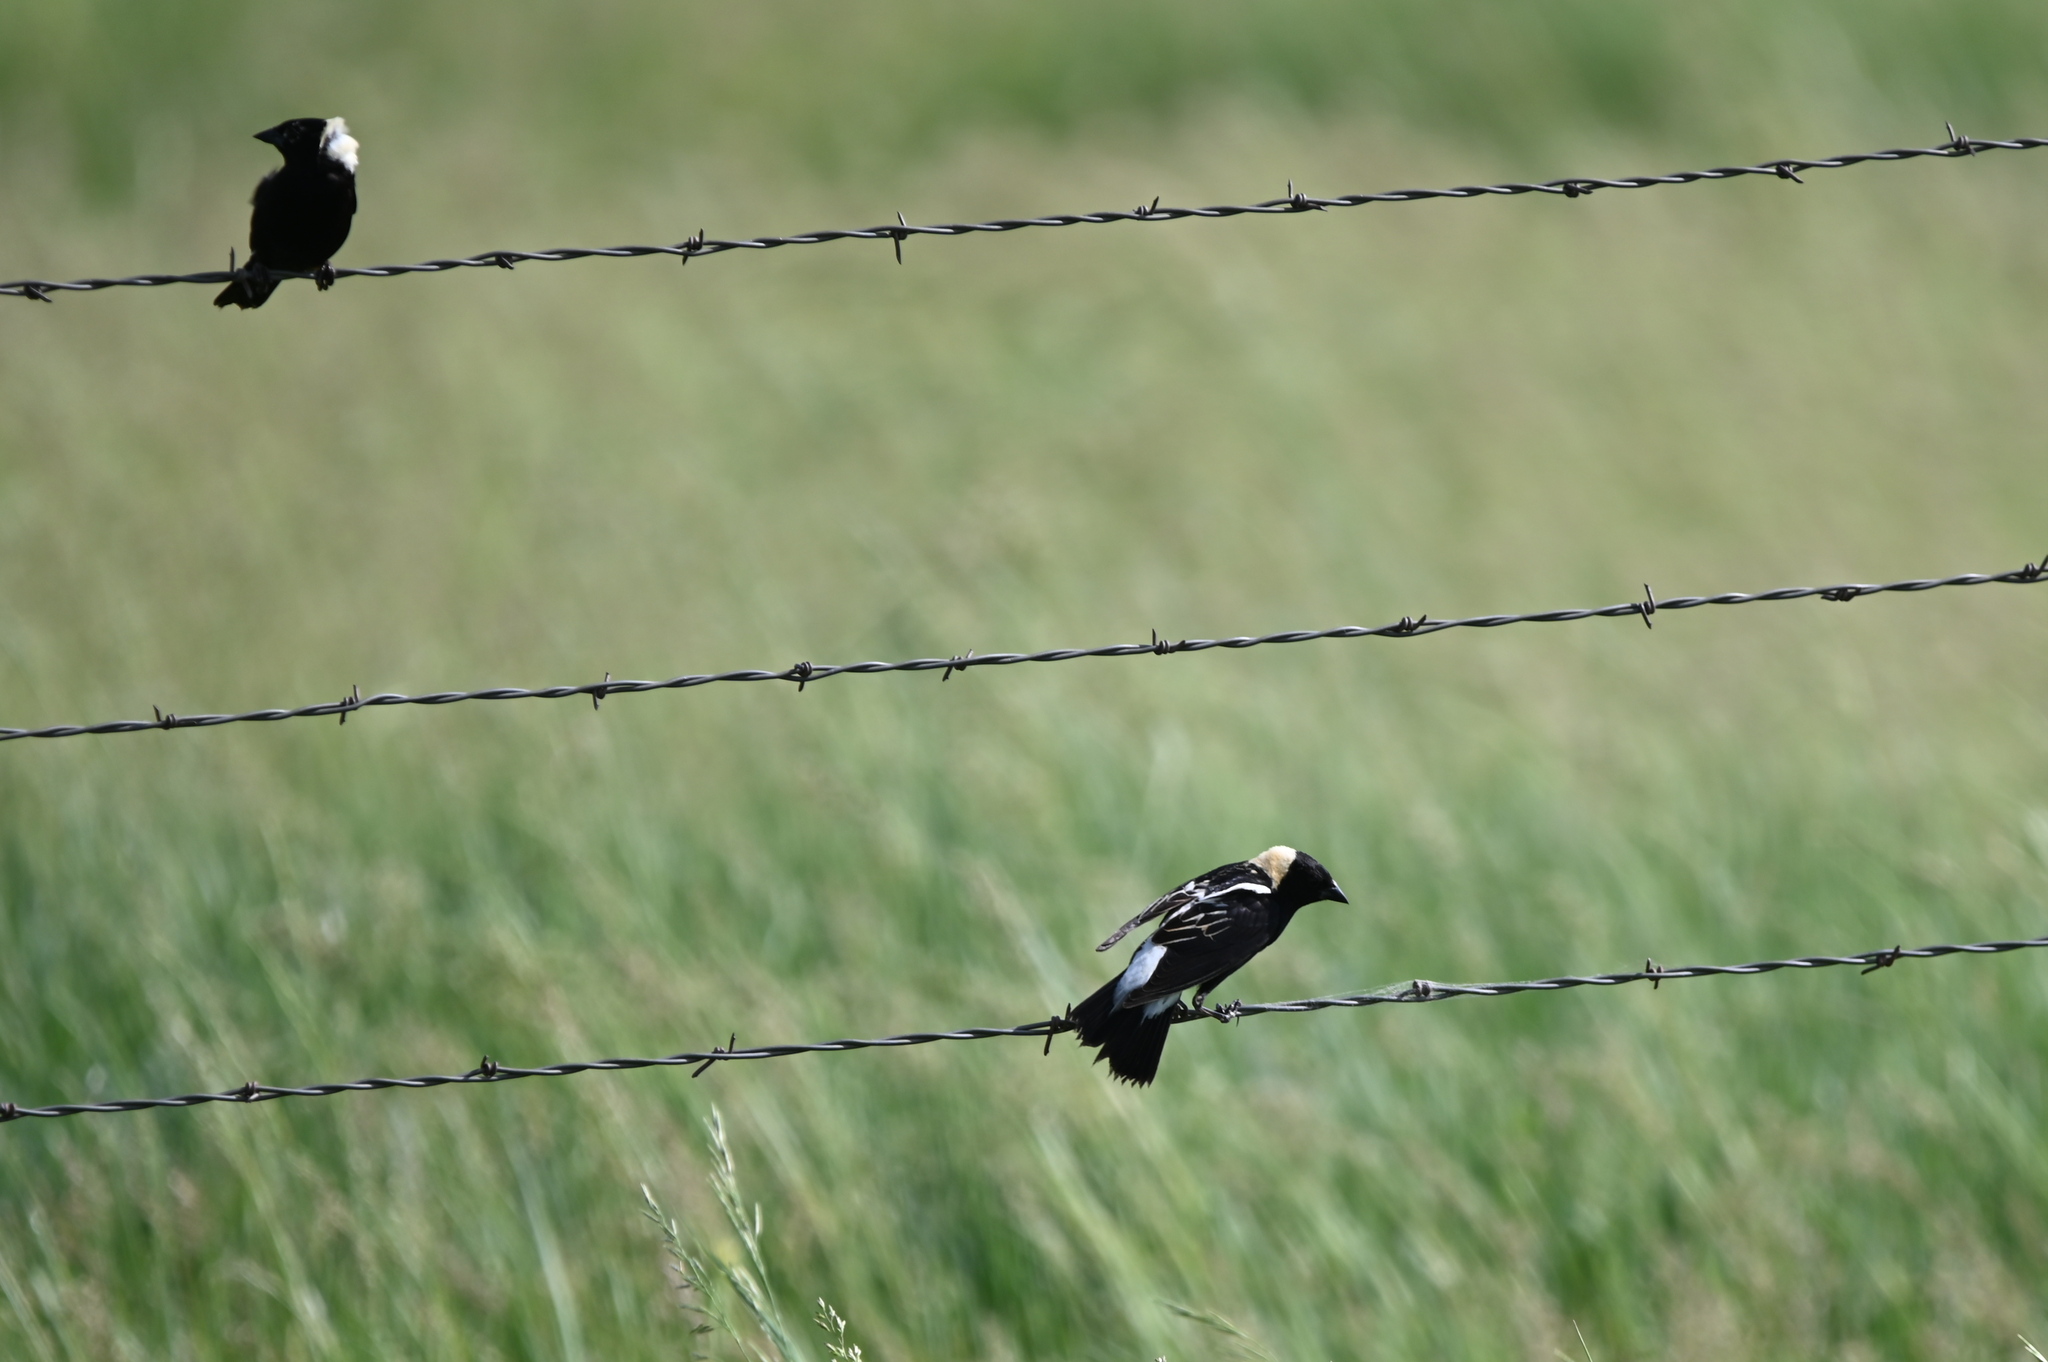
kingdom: Animalia
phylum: Chordata
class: Aves
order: Passeriformes
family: Icteridae
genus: Dolichonyx
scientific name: Dolichonyx oryzivorus
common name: Bobolink
